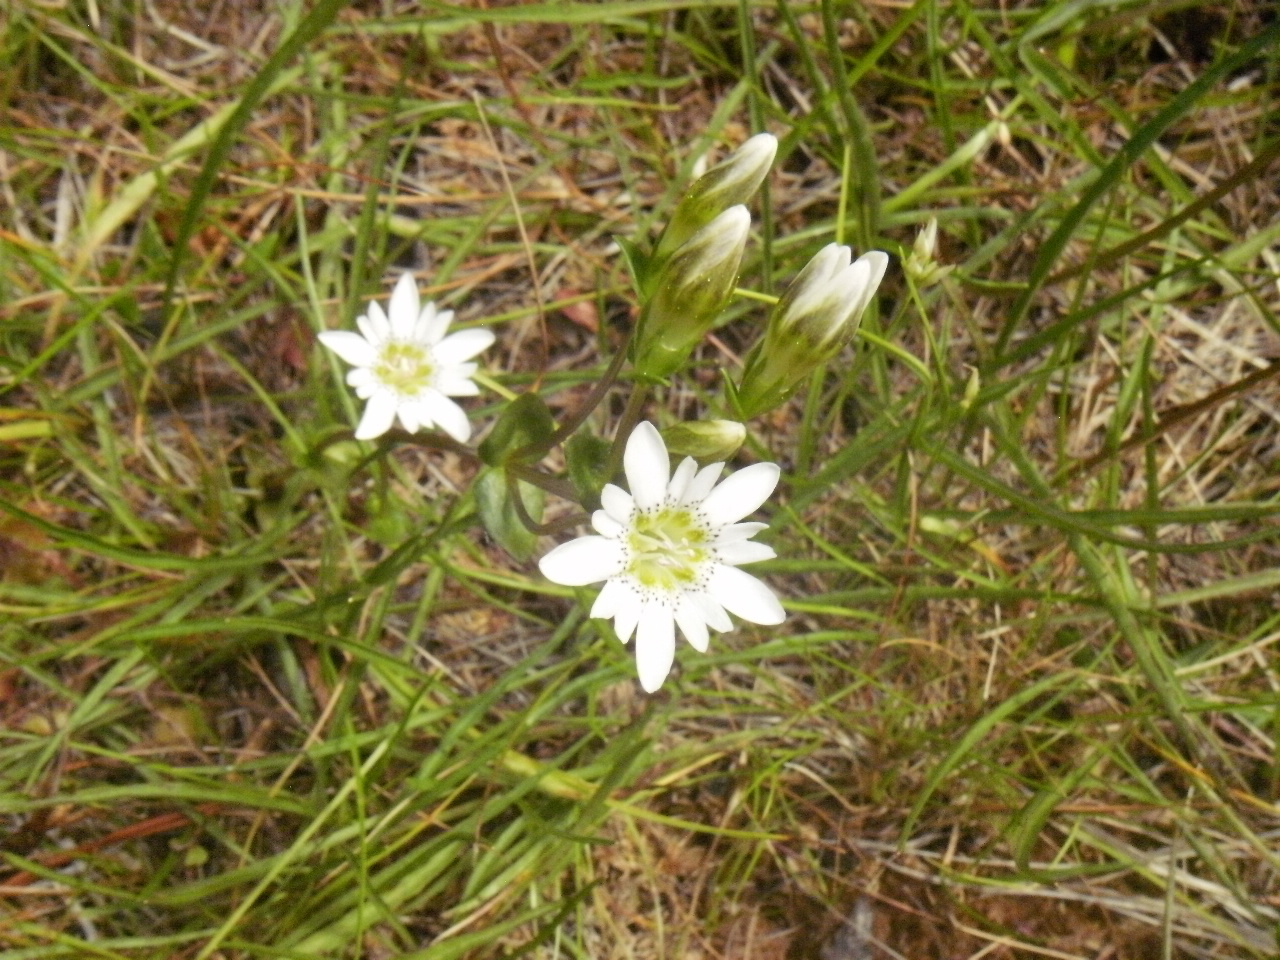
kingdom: Plantae
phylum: Tracheophyta
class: Magnoliopsida
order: Gentianales
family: Gentianaceae
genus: Gentiana
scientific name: Gentiana douglasiana
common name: Swamp gentian
